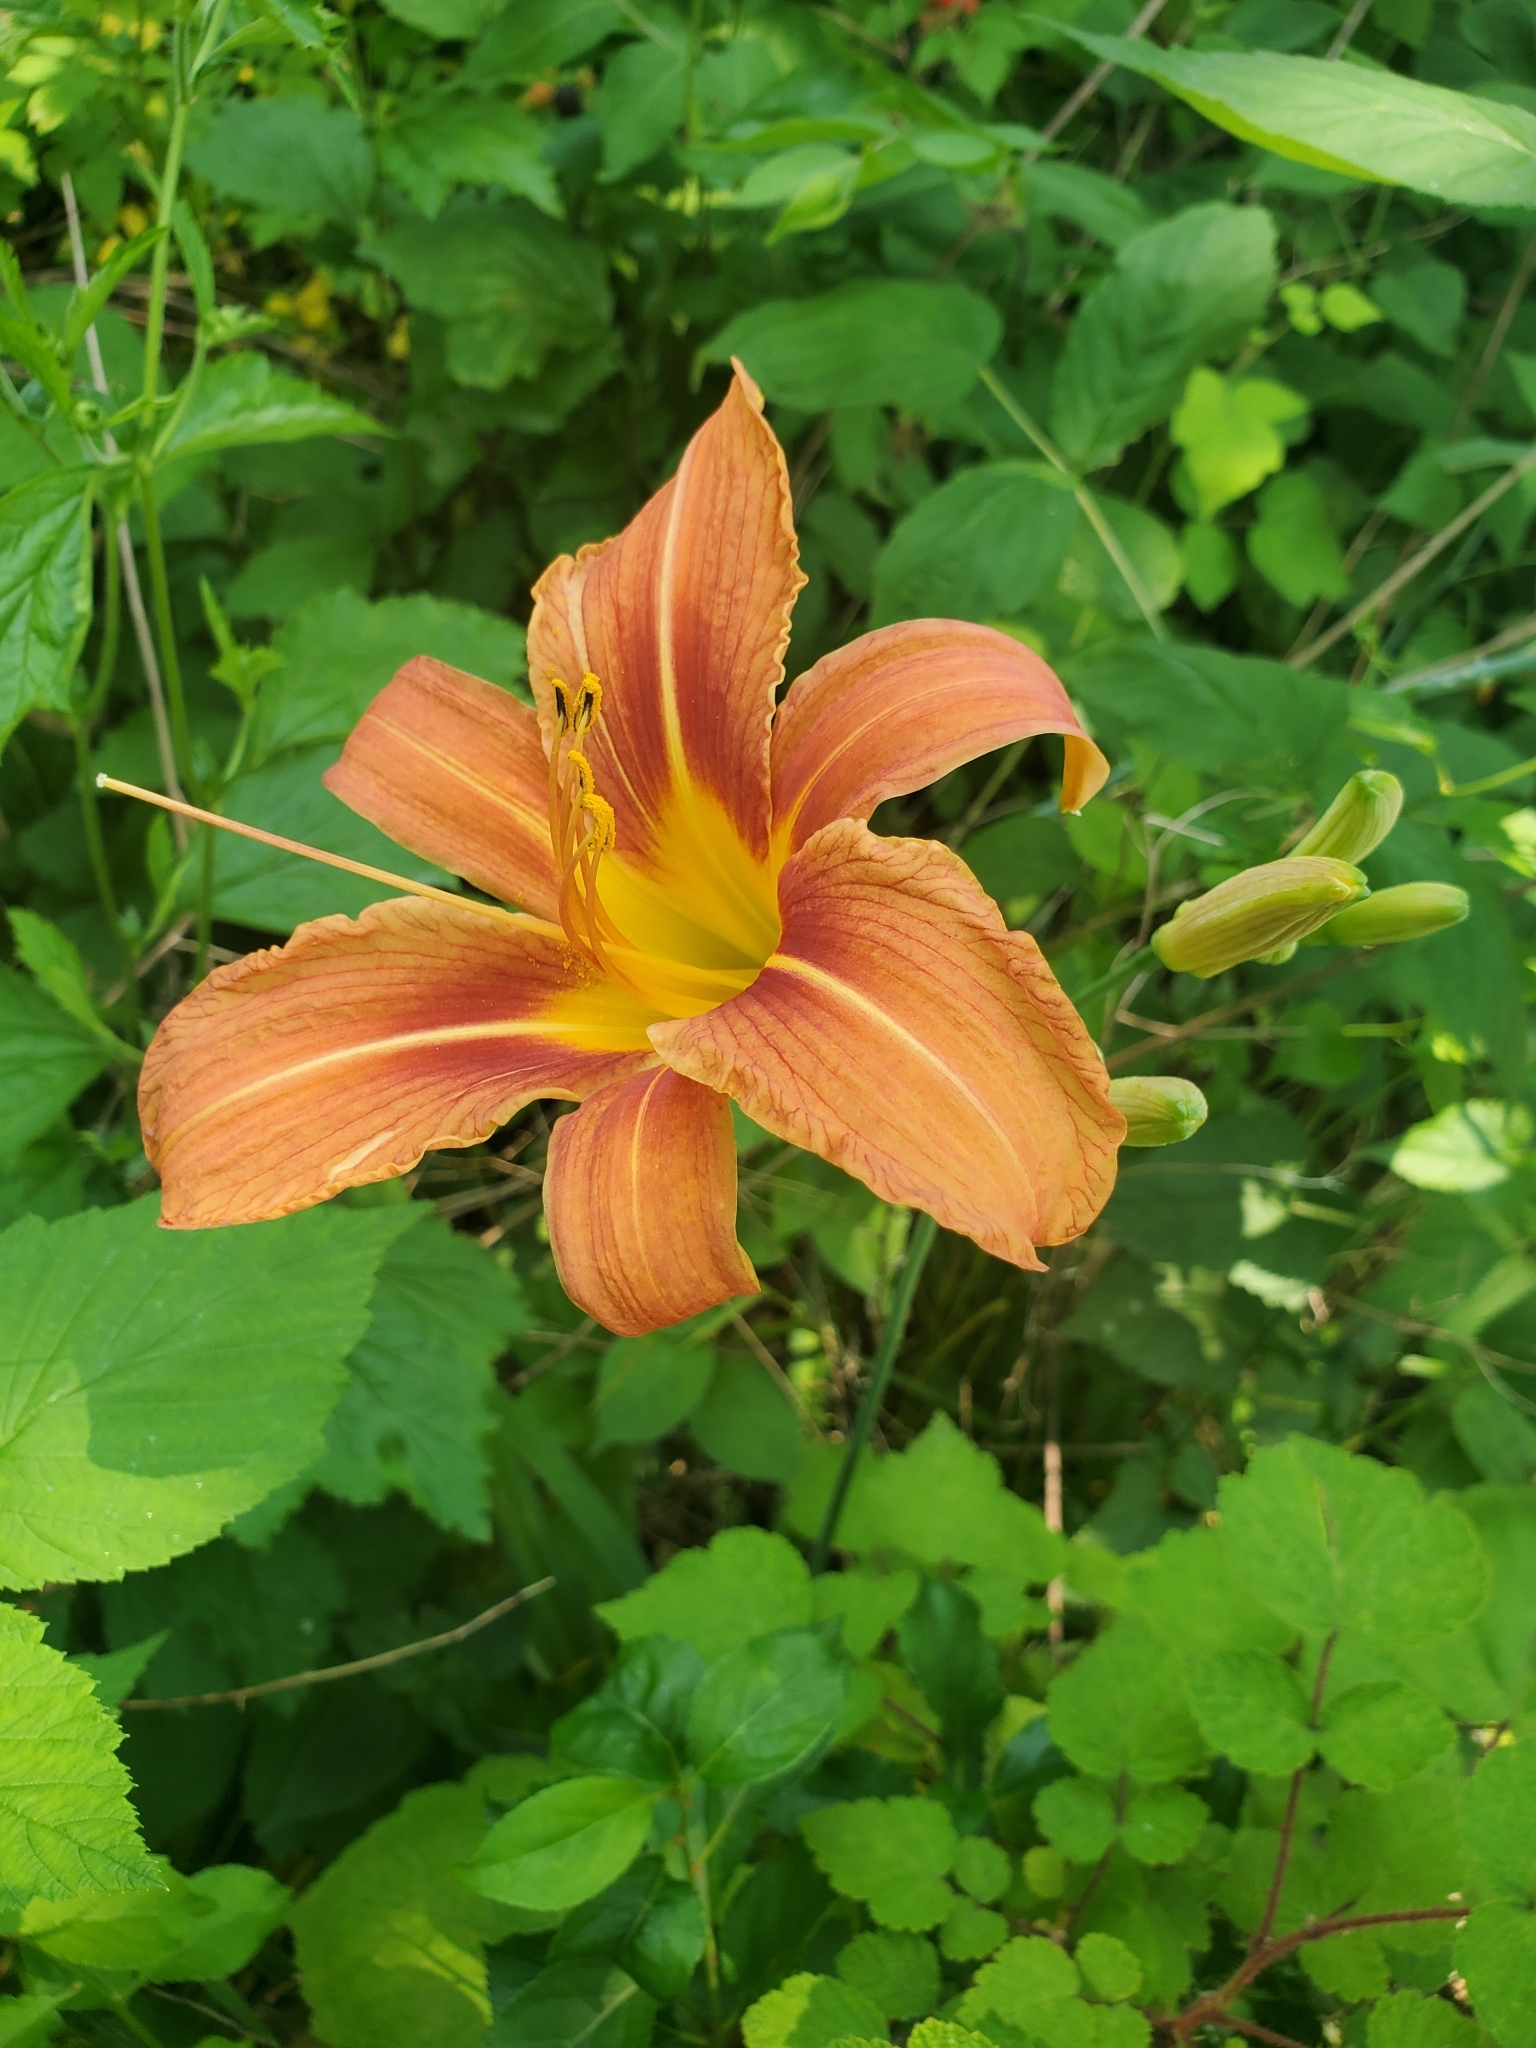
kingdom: Plantae
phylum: Tracheophyta
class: Liliopsida
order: Asparagales
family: Asphodelaceae
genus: Hemerocallis
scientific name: Hemerocallis fulva
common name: Orange day-lily
